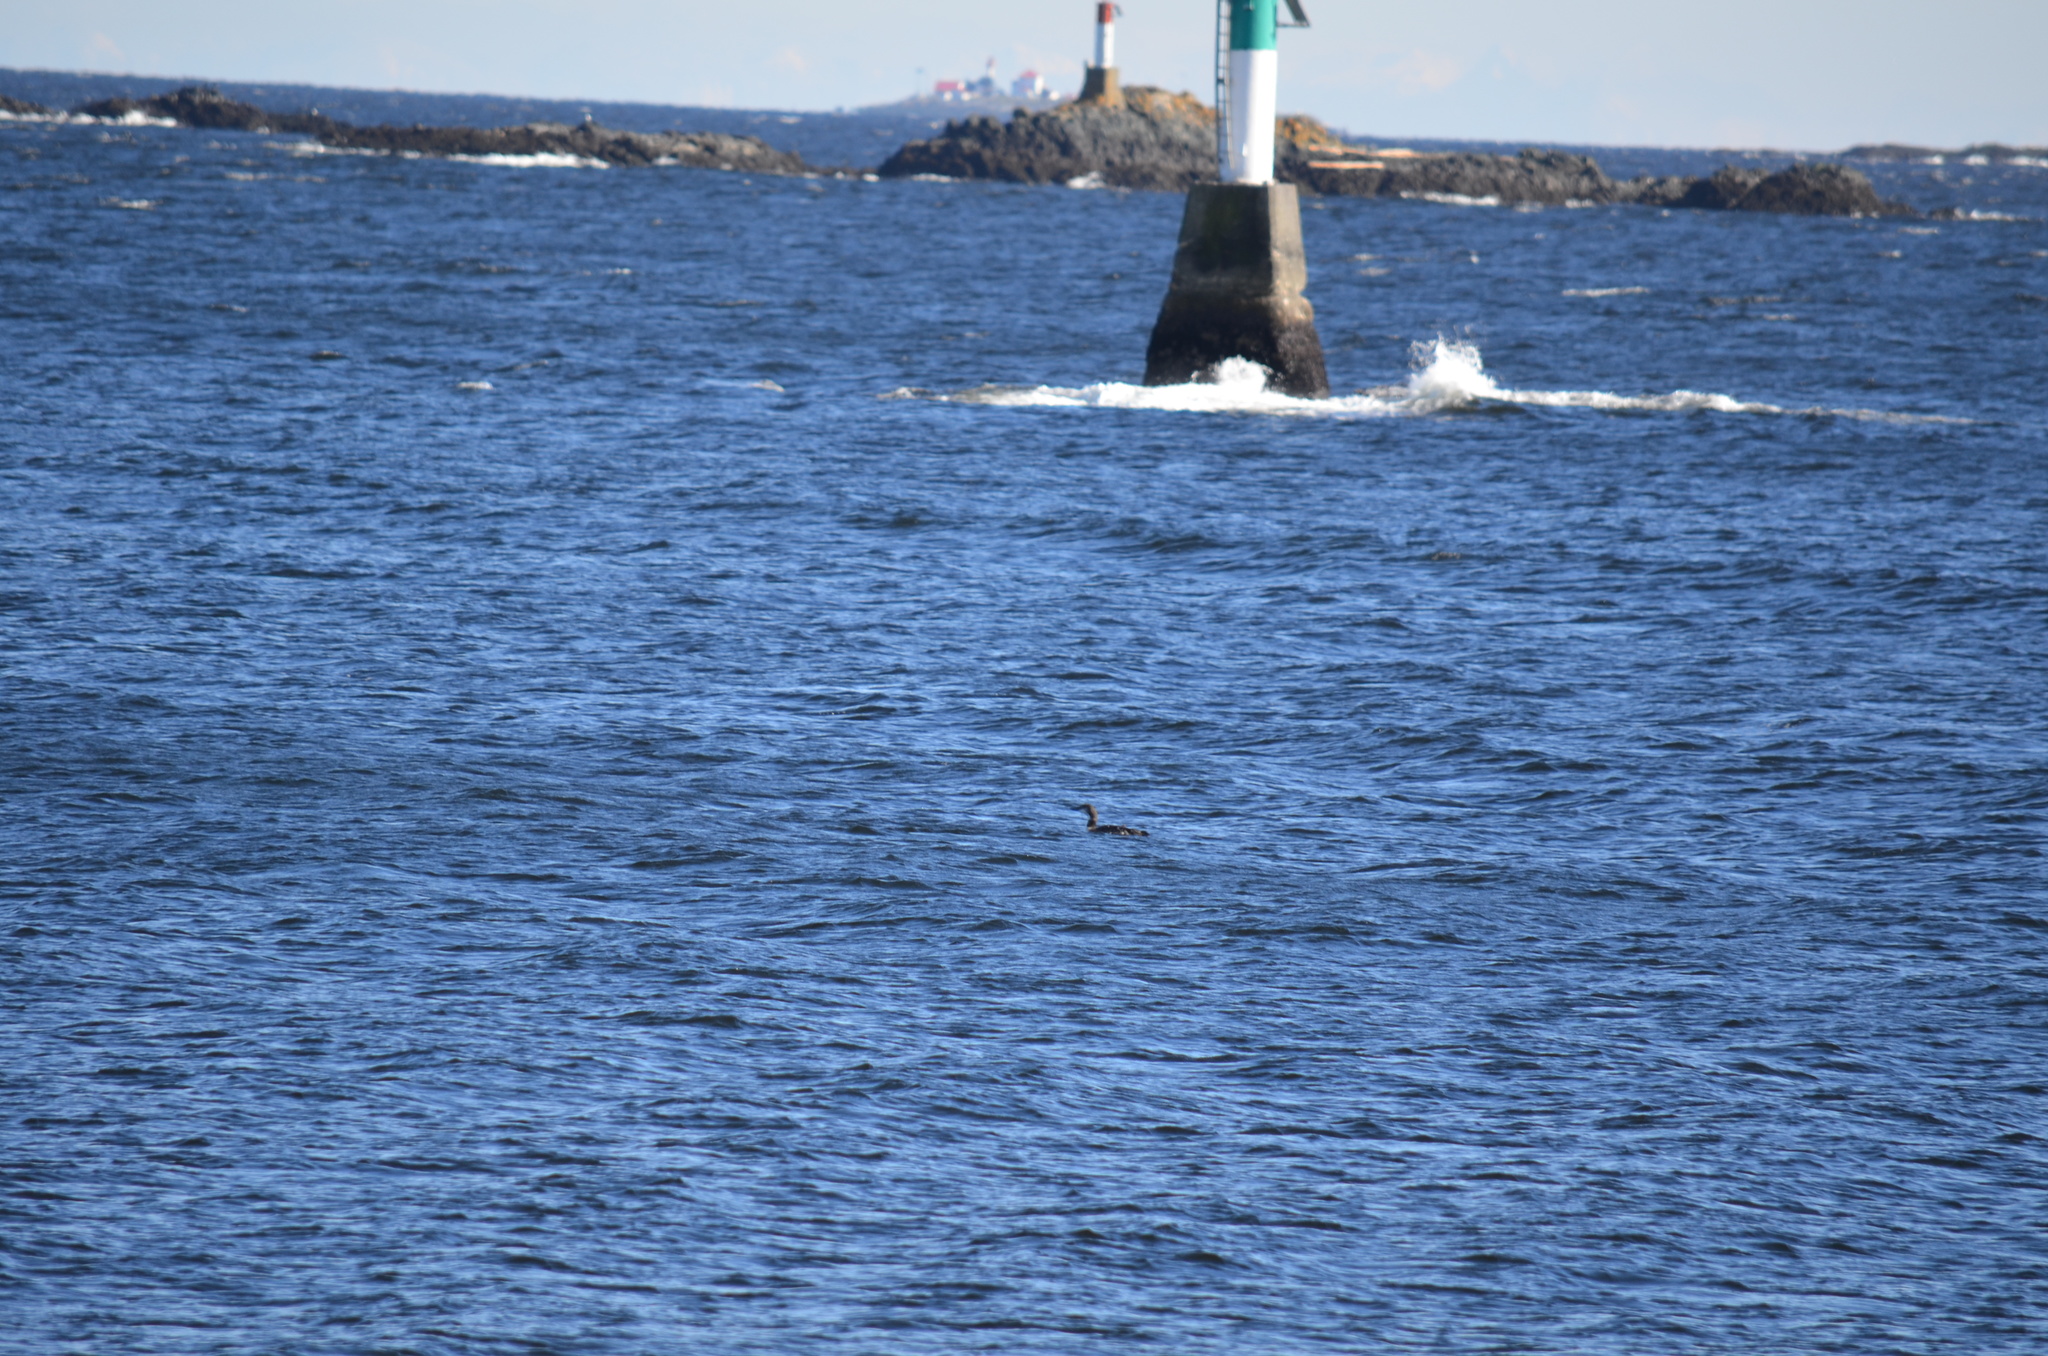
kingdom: Animalia
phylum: Chordata
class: Aves
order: Gaviiformes
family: Gaviidae
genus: Gavia
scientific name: Gavia immer
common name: Common loon
